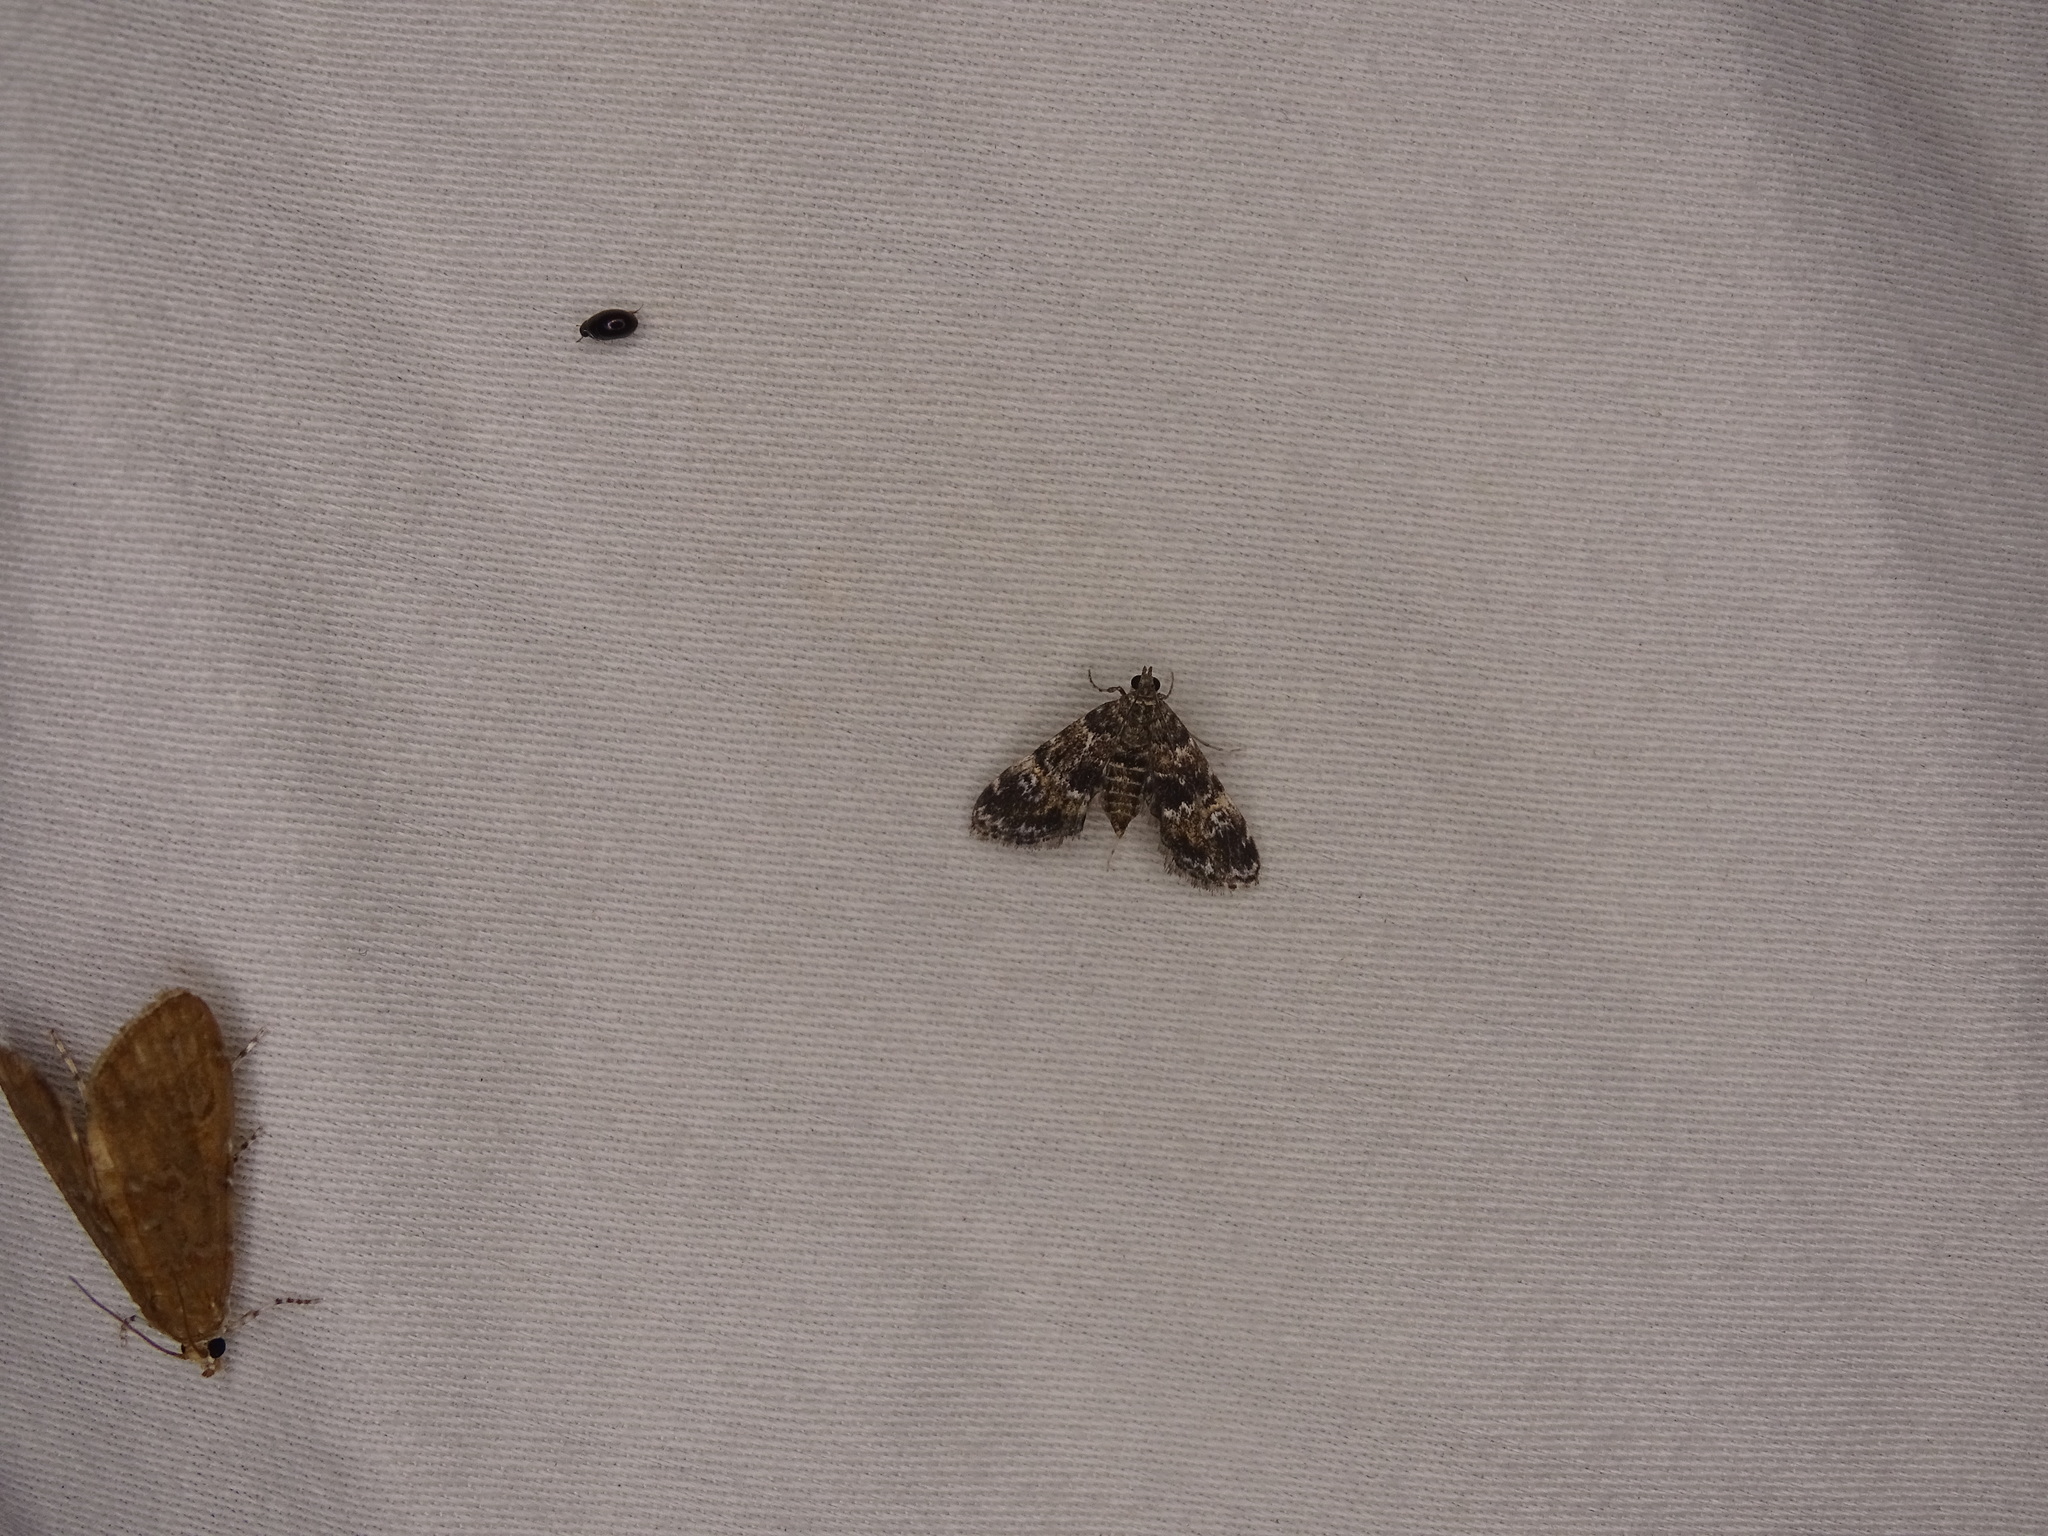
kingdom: Animalia
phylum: Arthropoda
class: Insecta
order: Lepidoptera
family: Crambidae
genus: Elophila
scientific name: Elophila obliteralis
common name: Waterlily leafcutter moth
